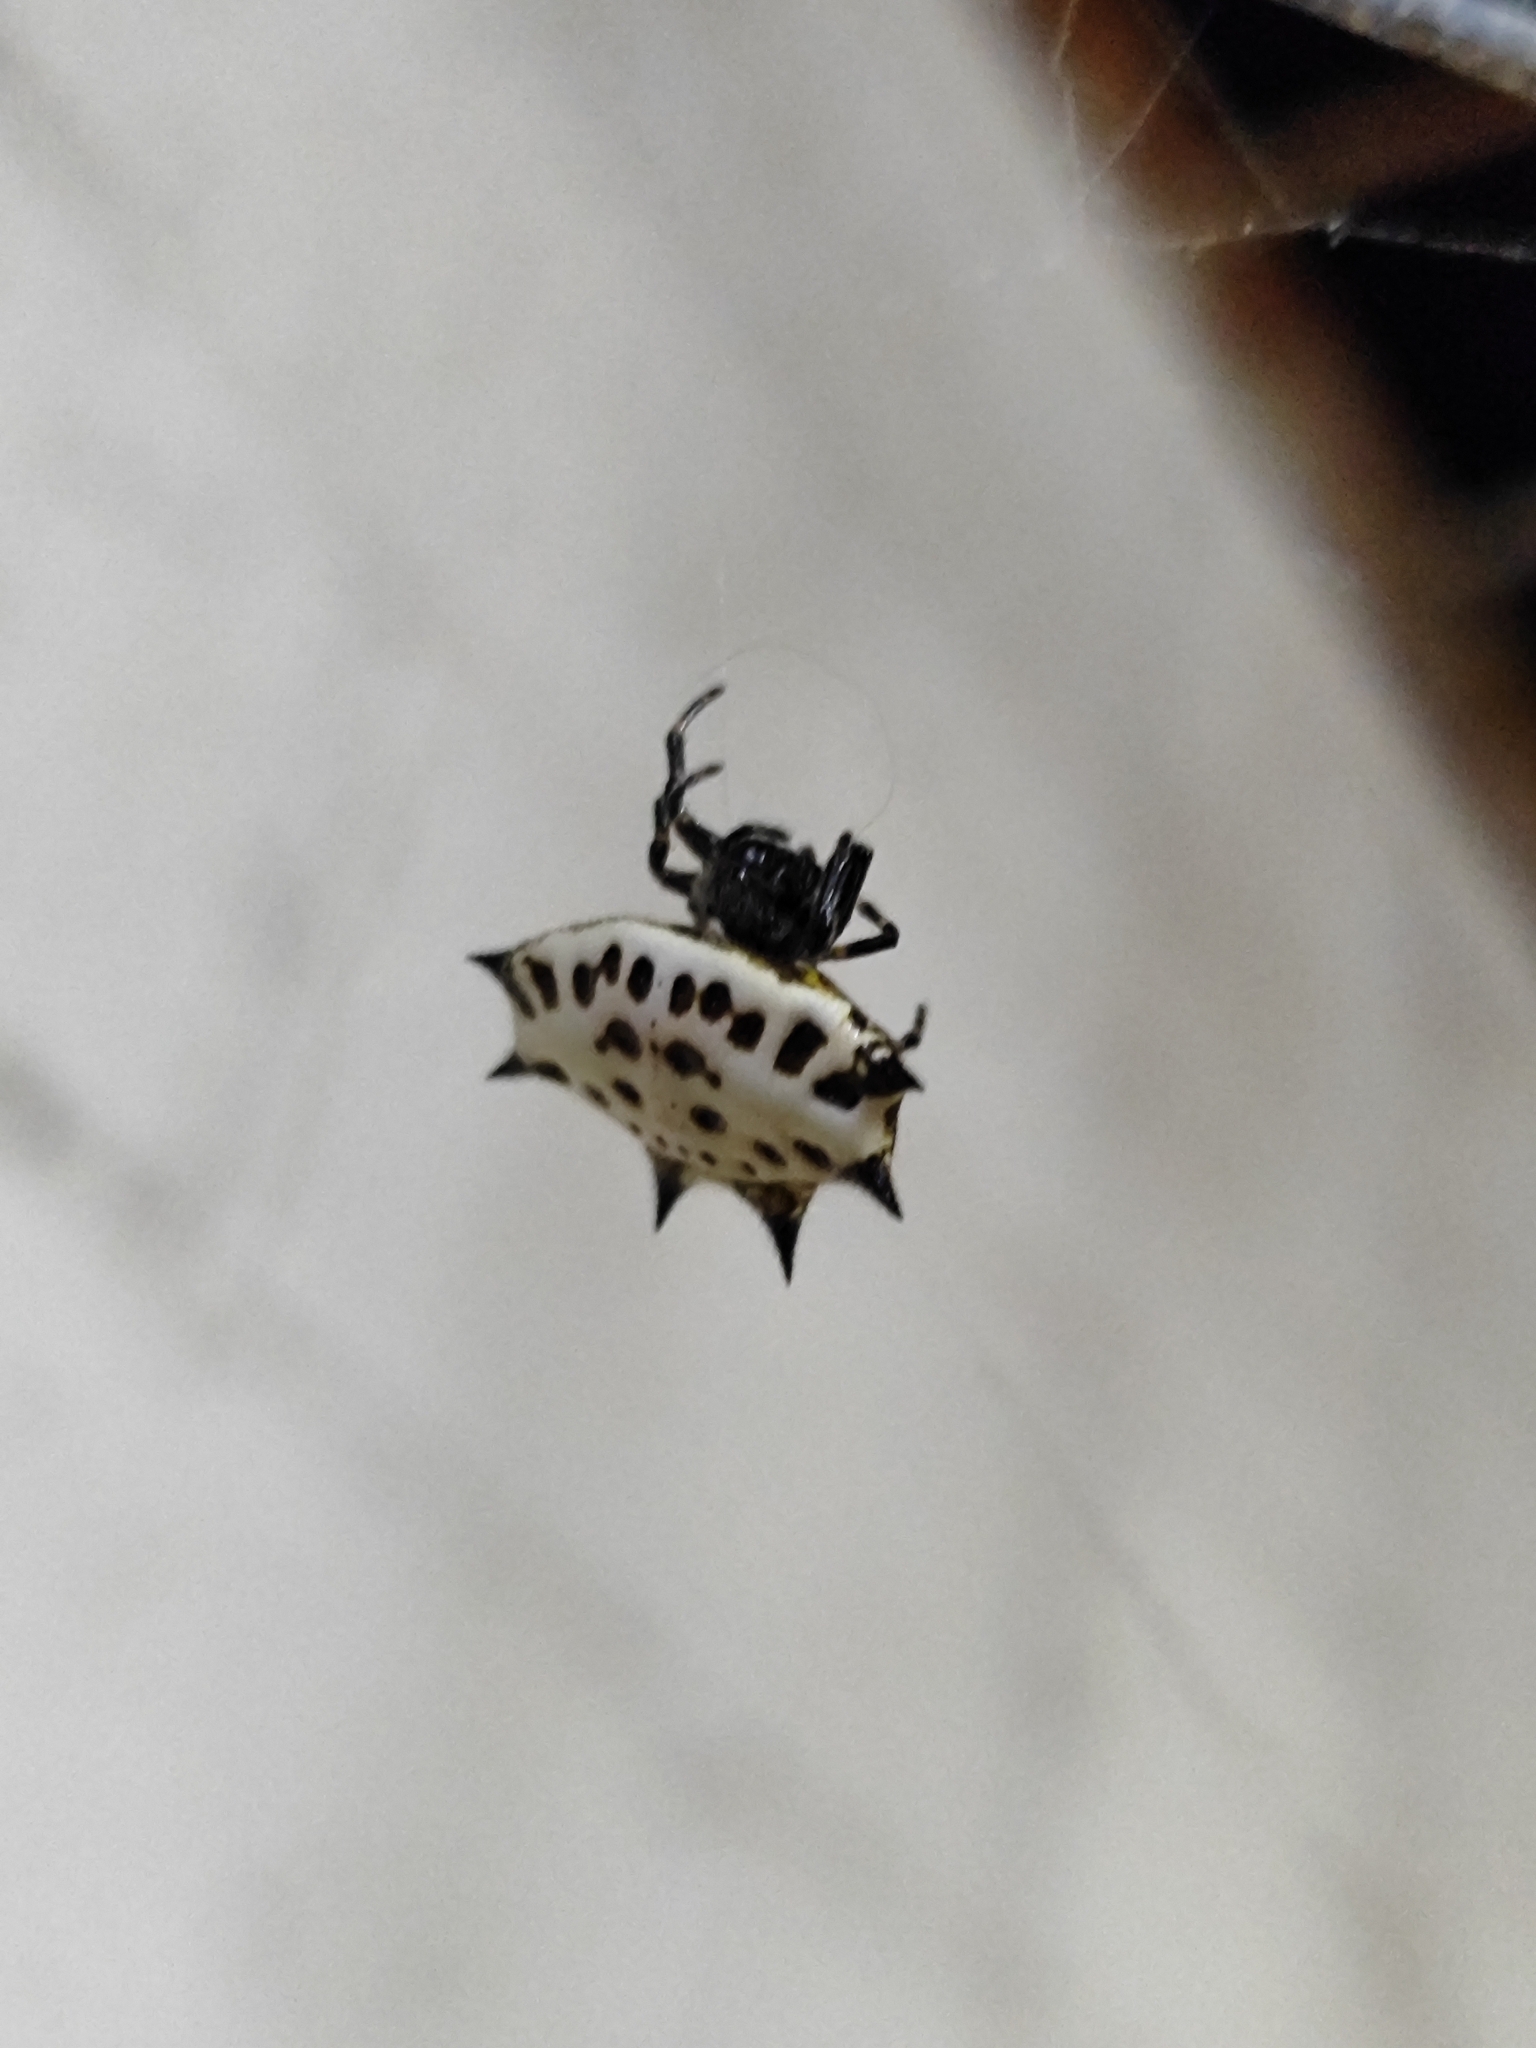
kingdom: Animalia
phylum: Arthropoda
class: Arachnida
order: Araneae
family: Araneidae
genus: Gasteracantha
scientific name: Gasteracantha cancriformis
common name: Orb weavers
